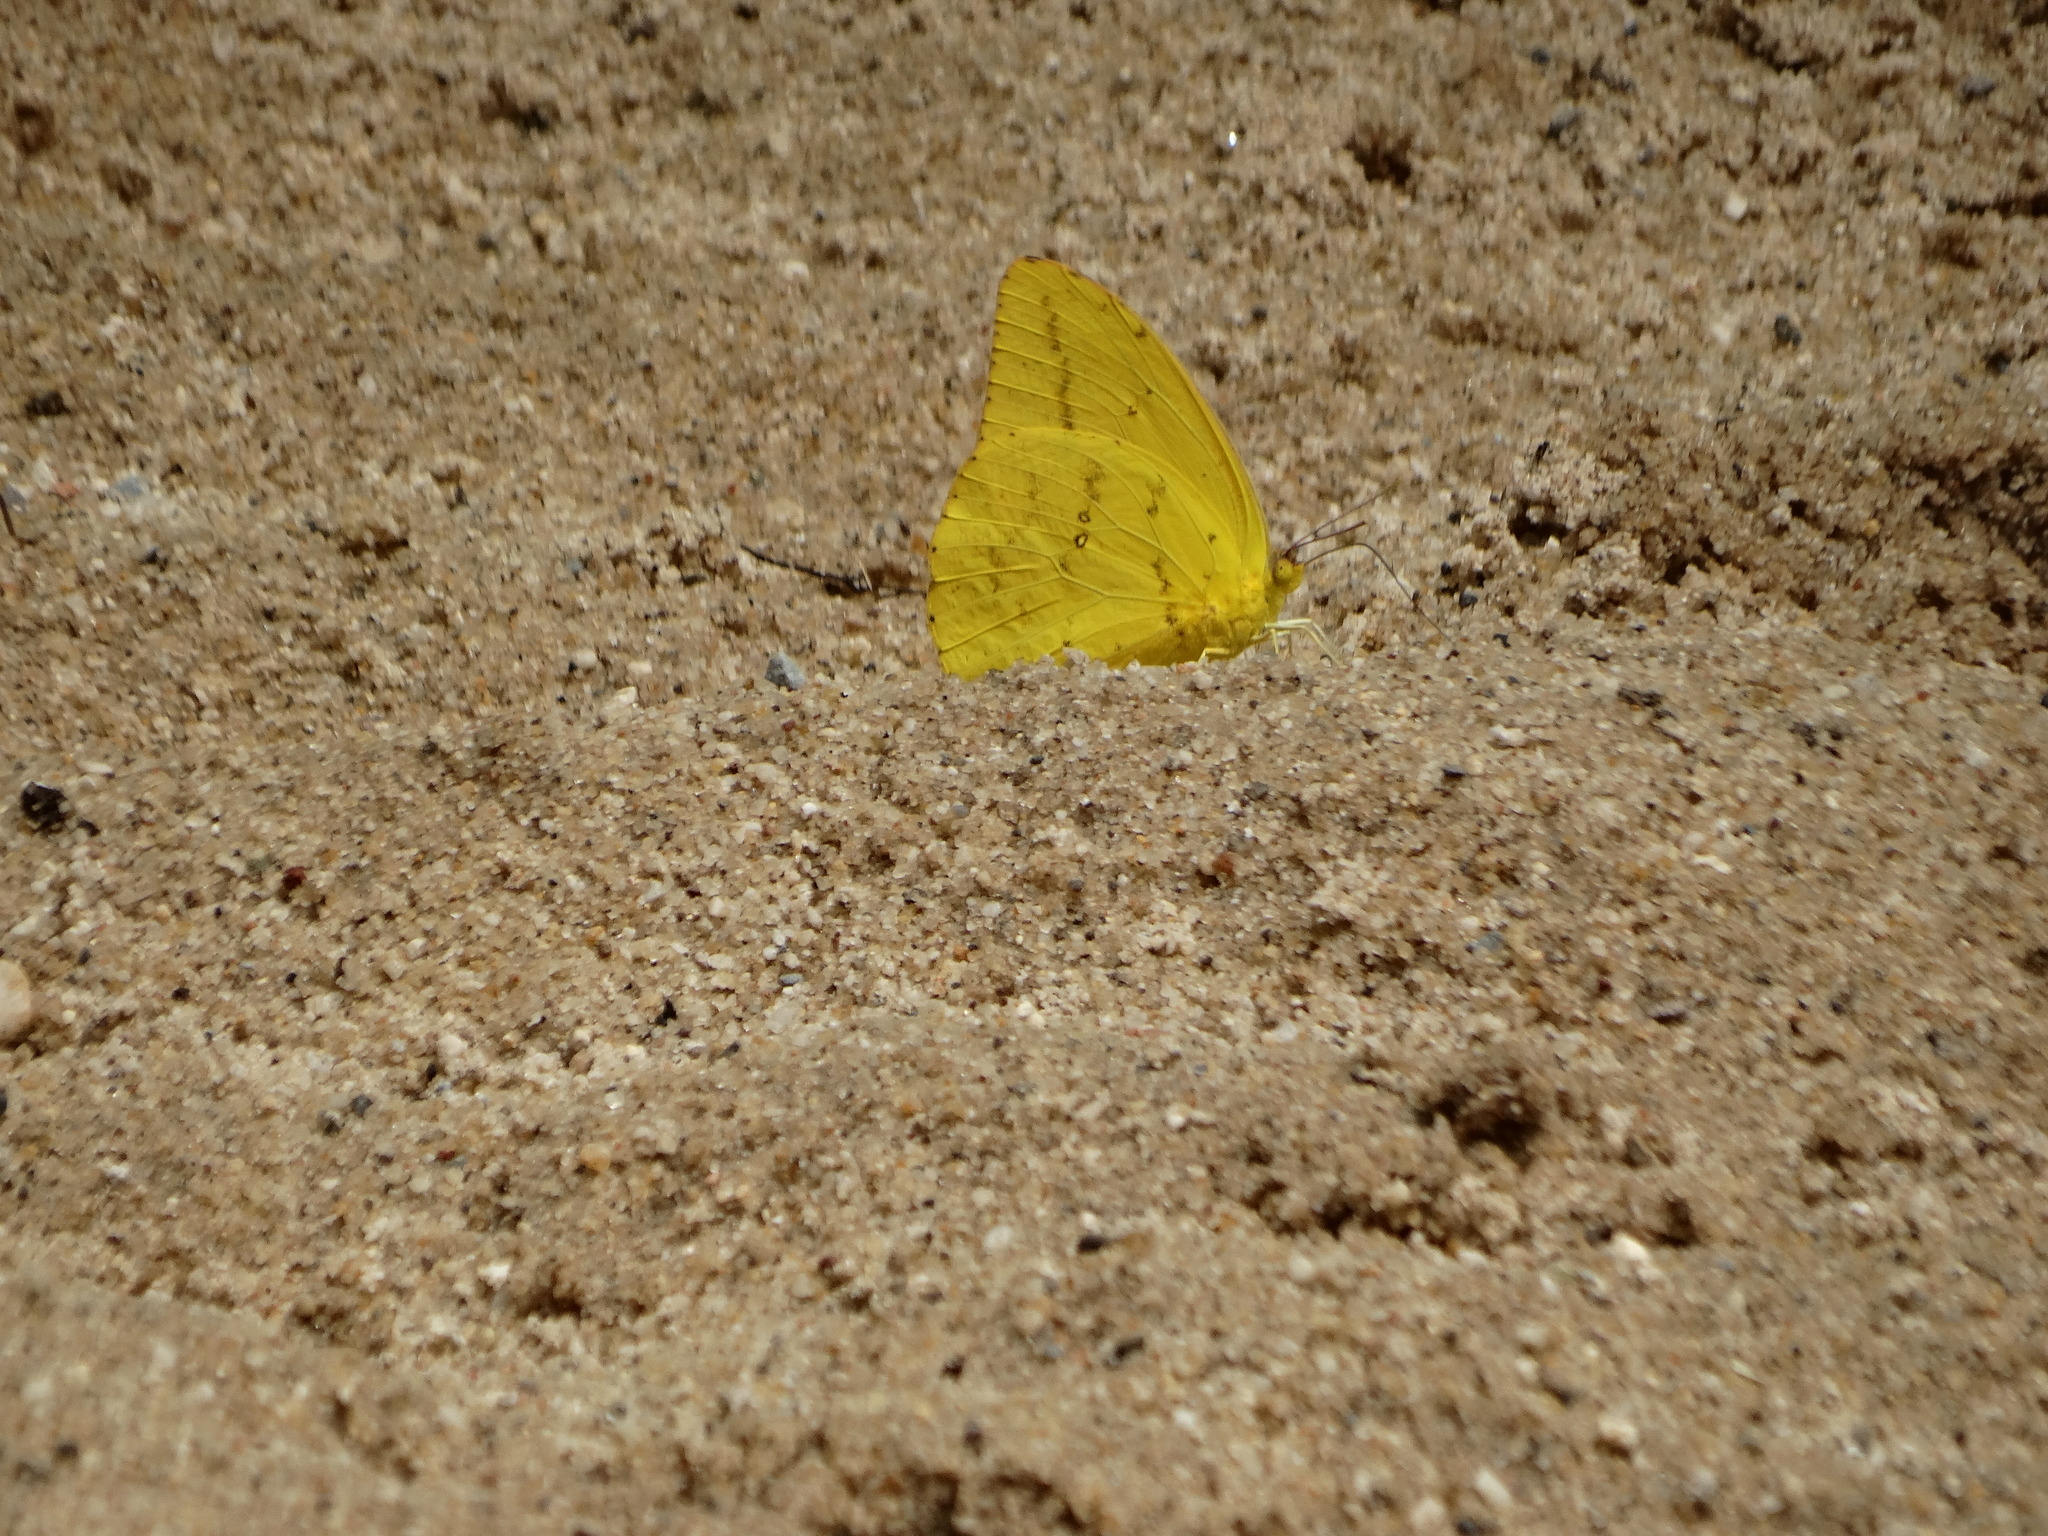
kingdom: Animalia
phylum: Arthropoda
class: Insecta
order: Lepidoptera
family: Pieridae
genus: Phoebis
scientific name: Phoebis agarithe
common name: Large orange sulphur
